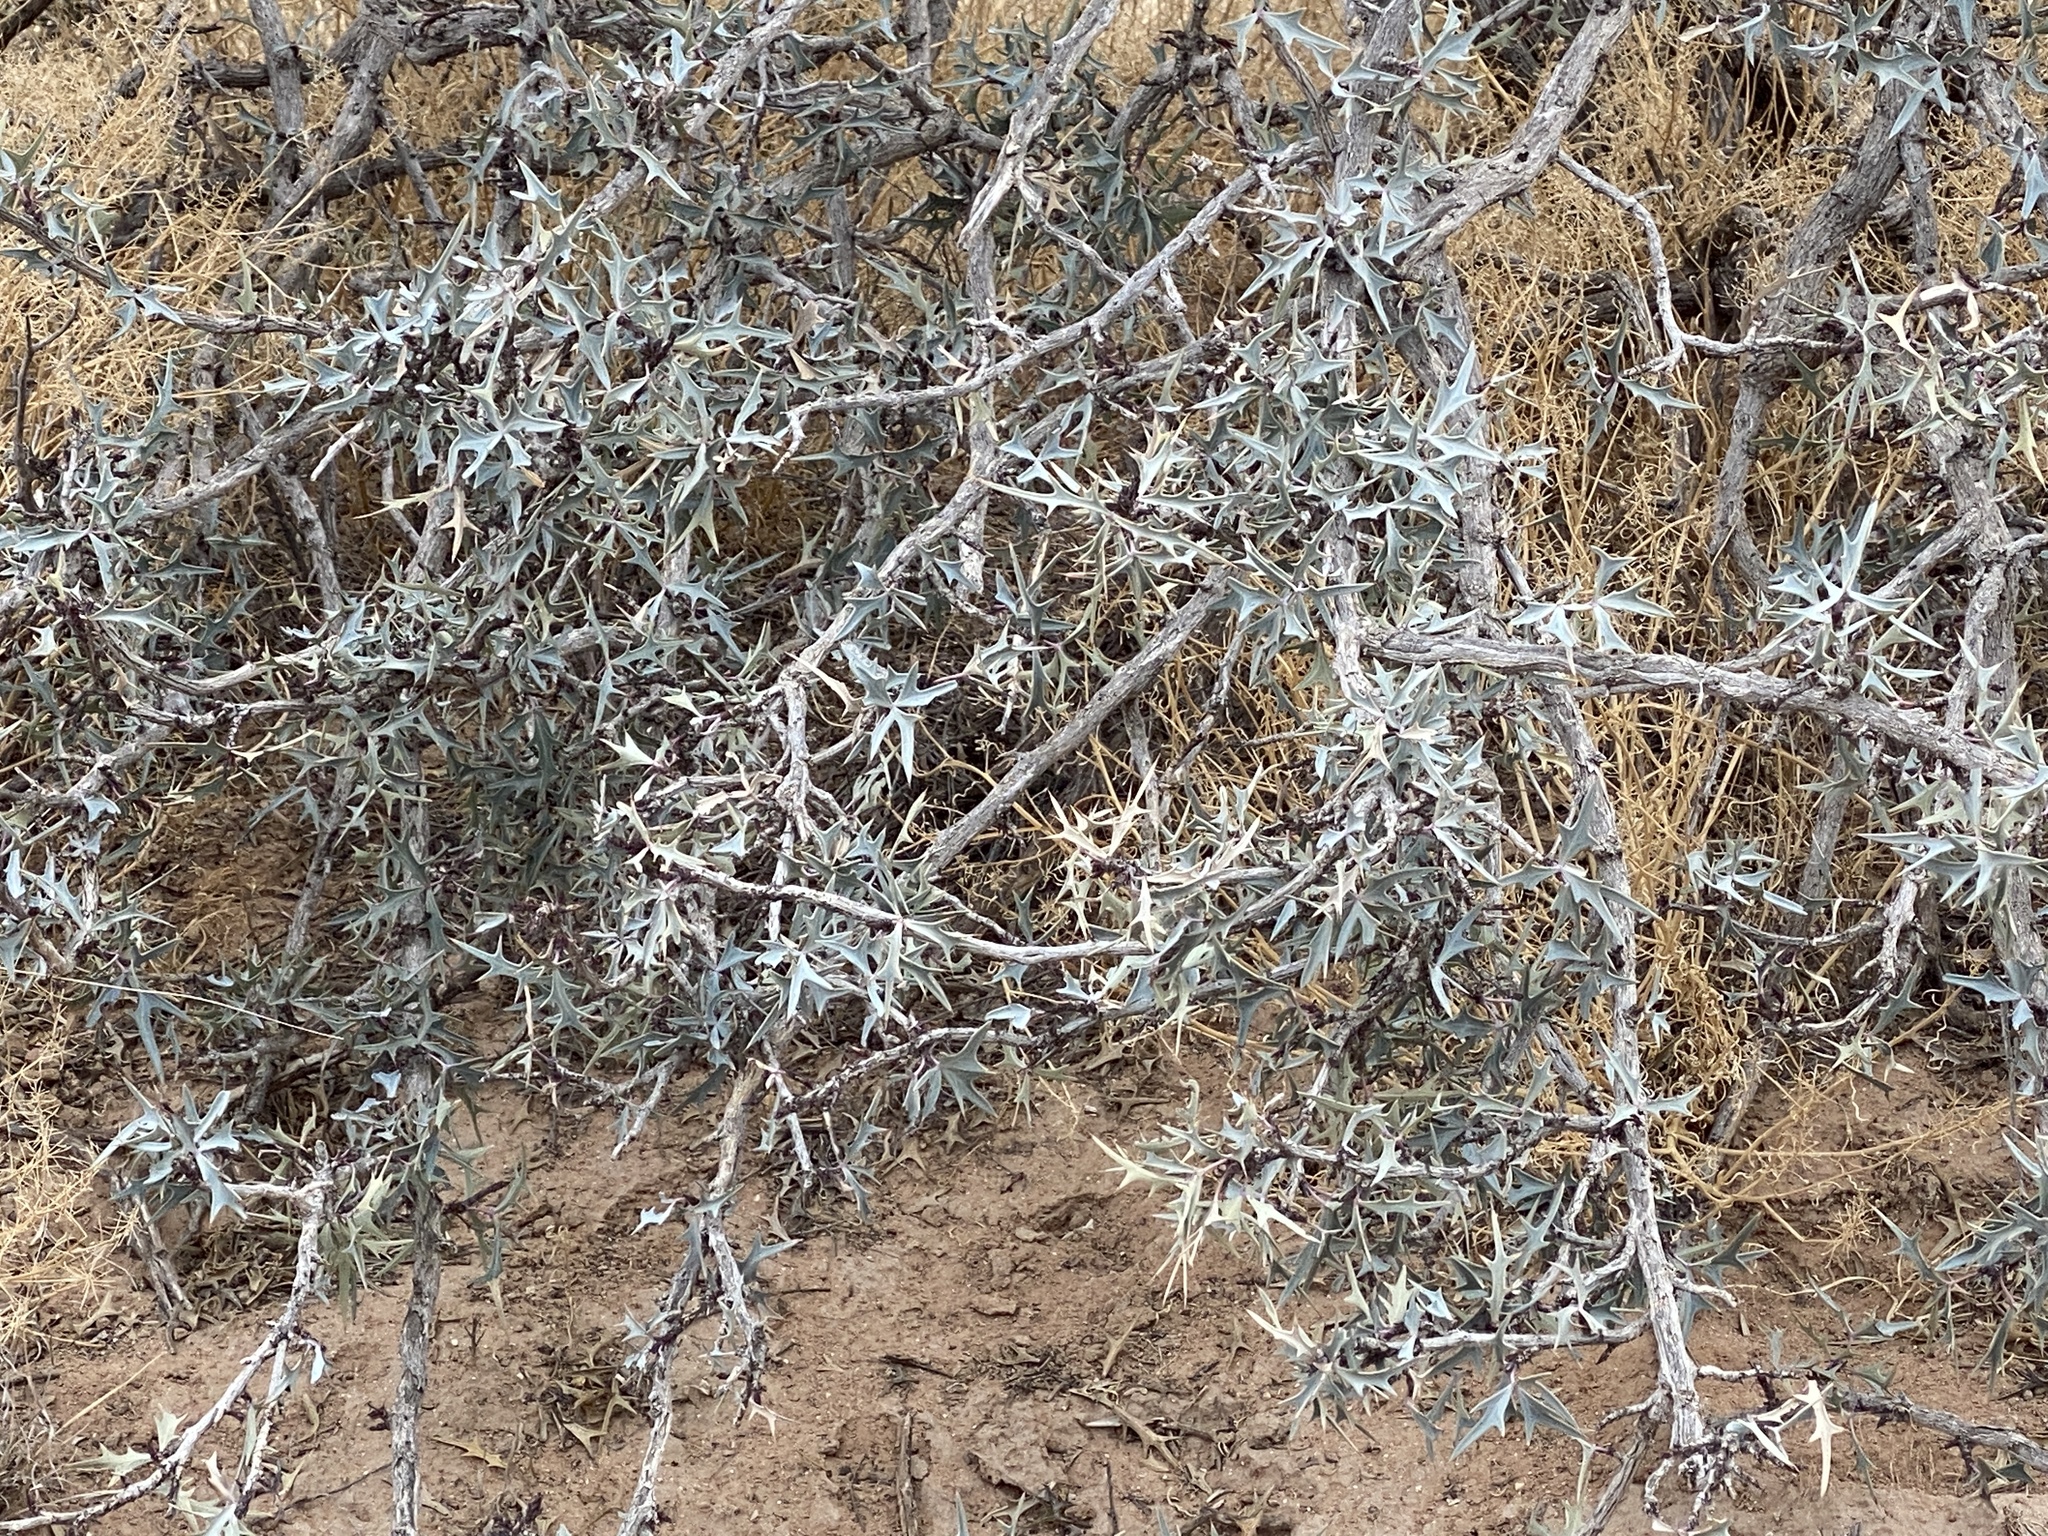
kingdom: Plantae
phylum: Tracheophyta
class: Magnoliopsida
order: Ranunculales
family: Berberidaceae
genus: Alloberberis
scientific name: Alloberberis trifoliolata
